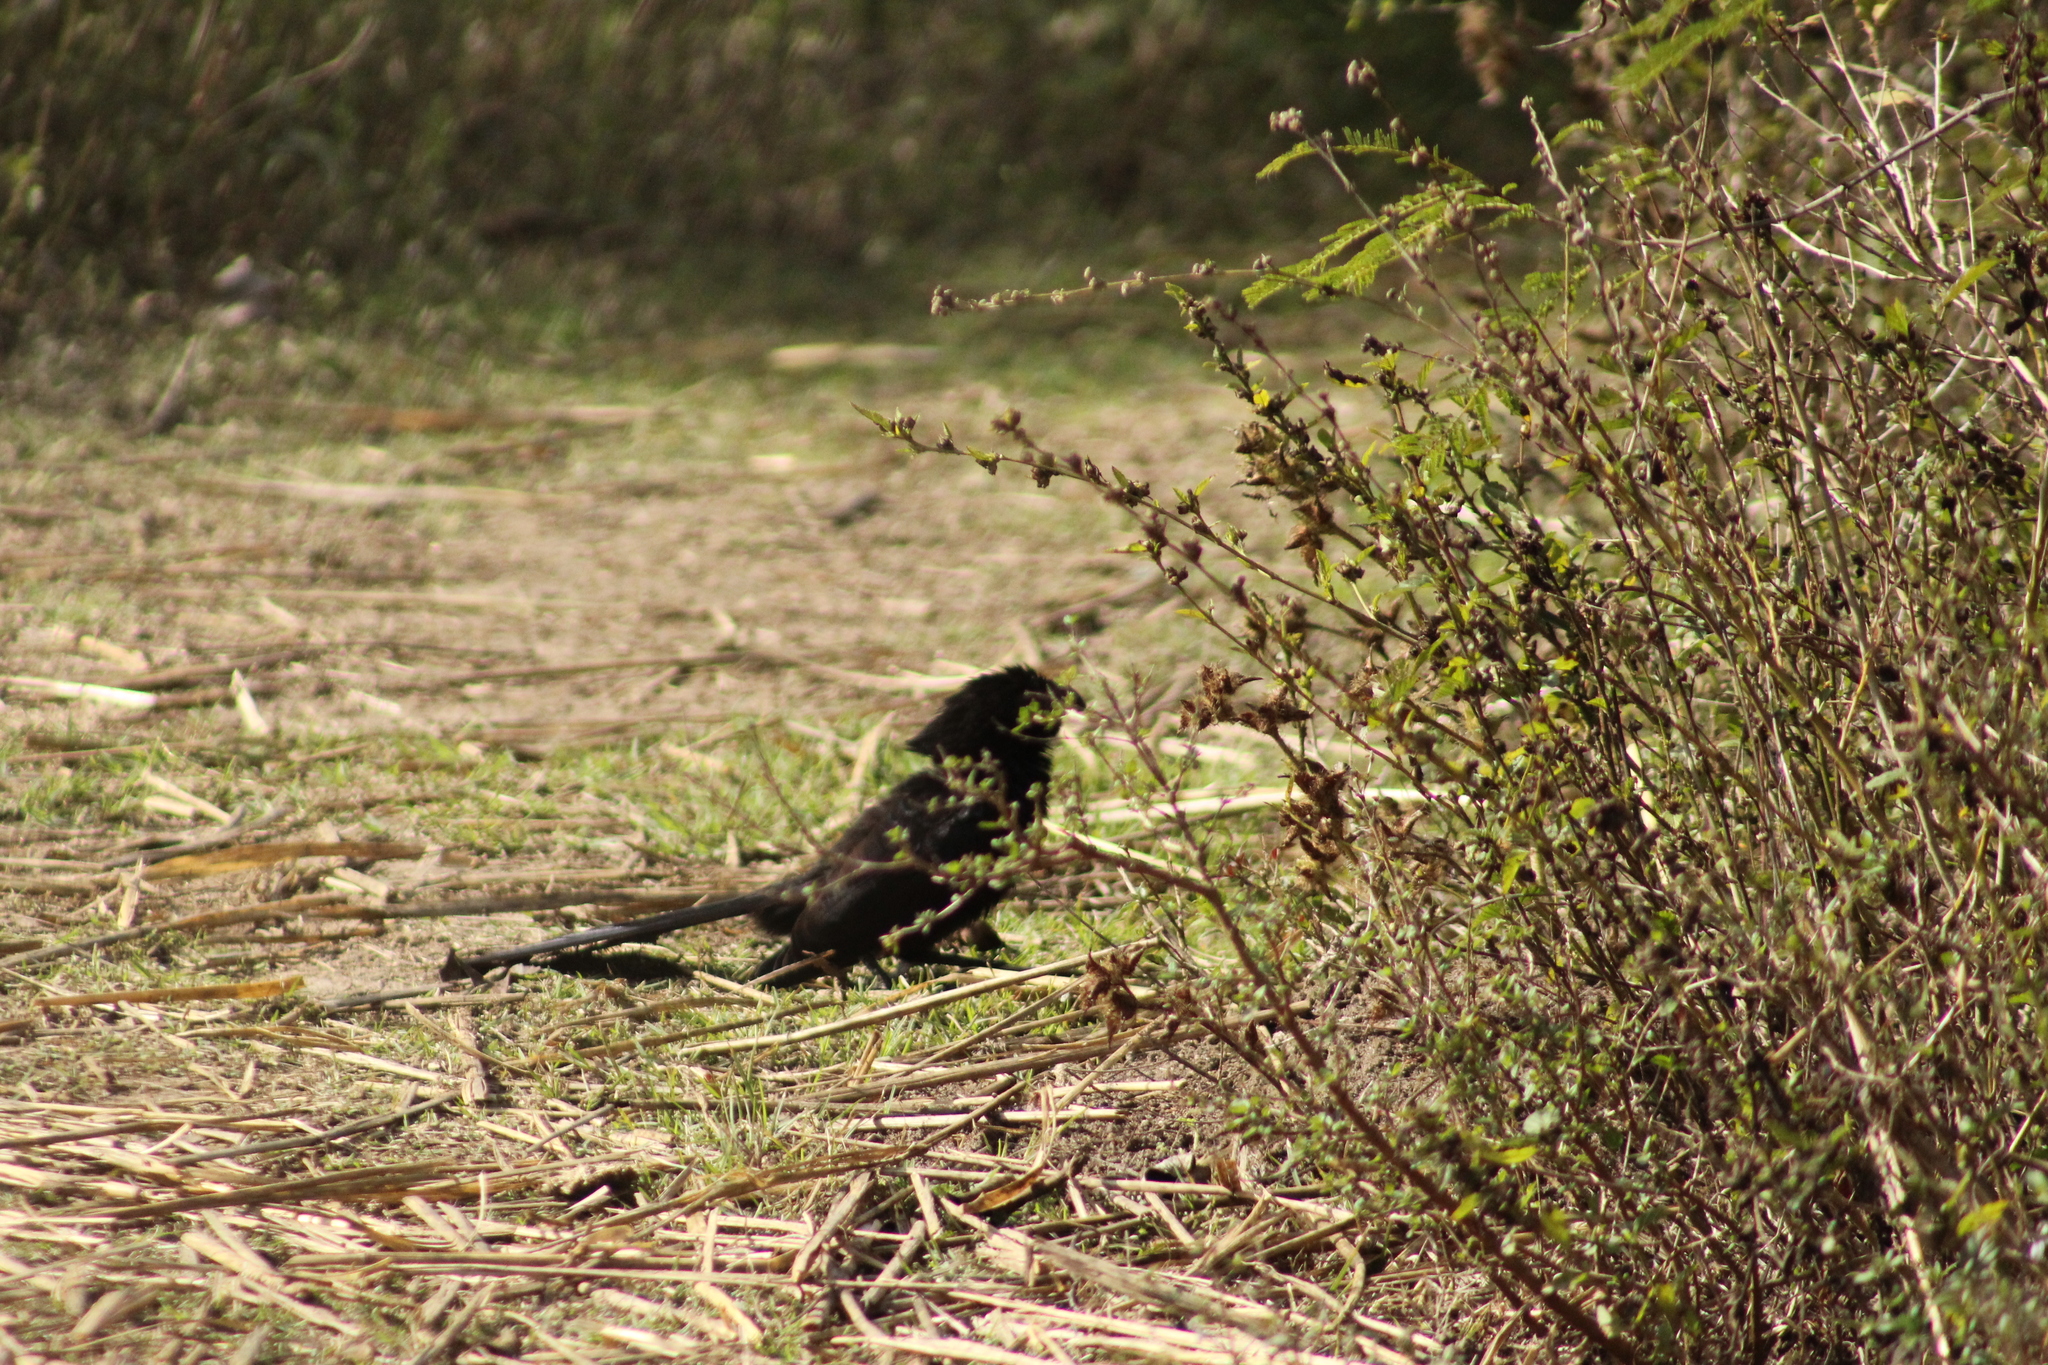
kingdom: Animalia
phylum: Chordata
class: Aves
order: Cuculiformes
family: Cuculidae
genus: Crotophaga
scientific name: Crotophaga sulcirostris
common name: Groove-billed ani
